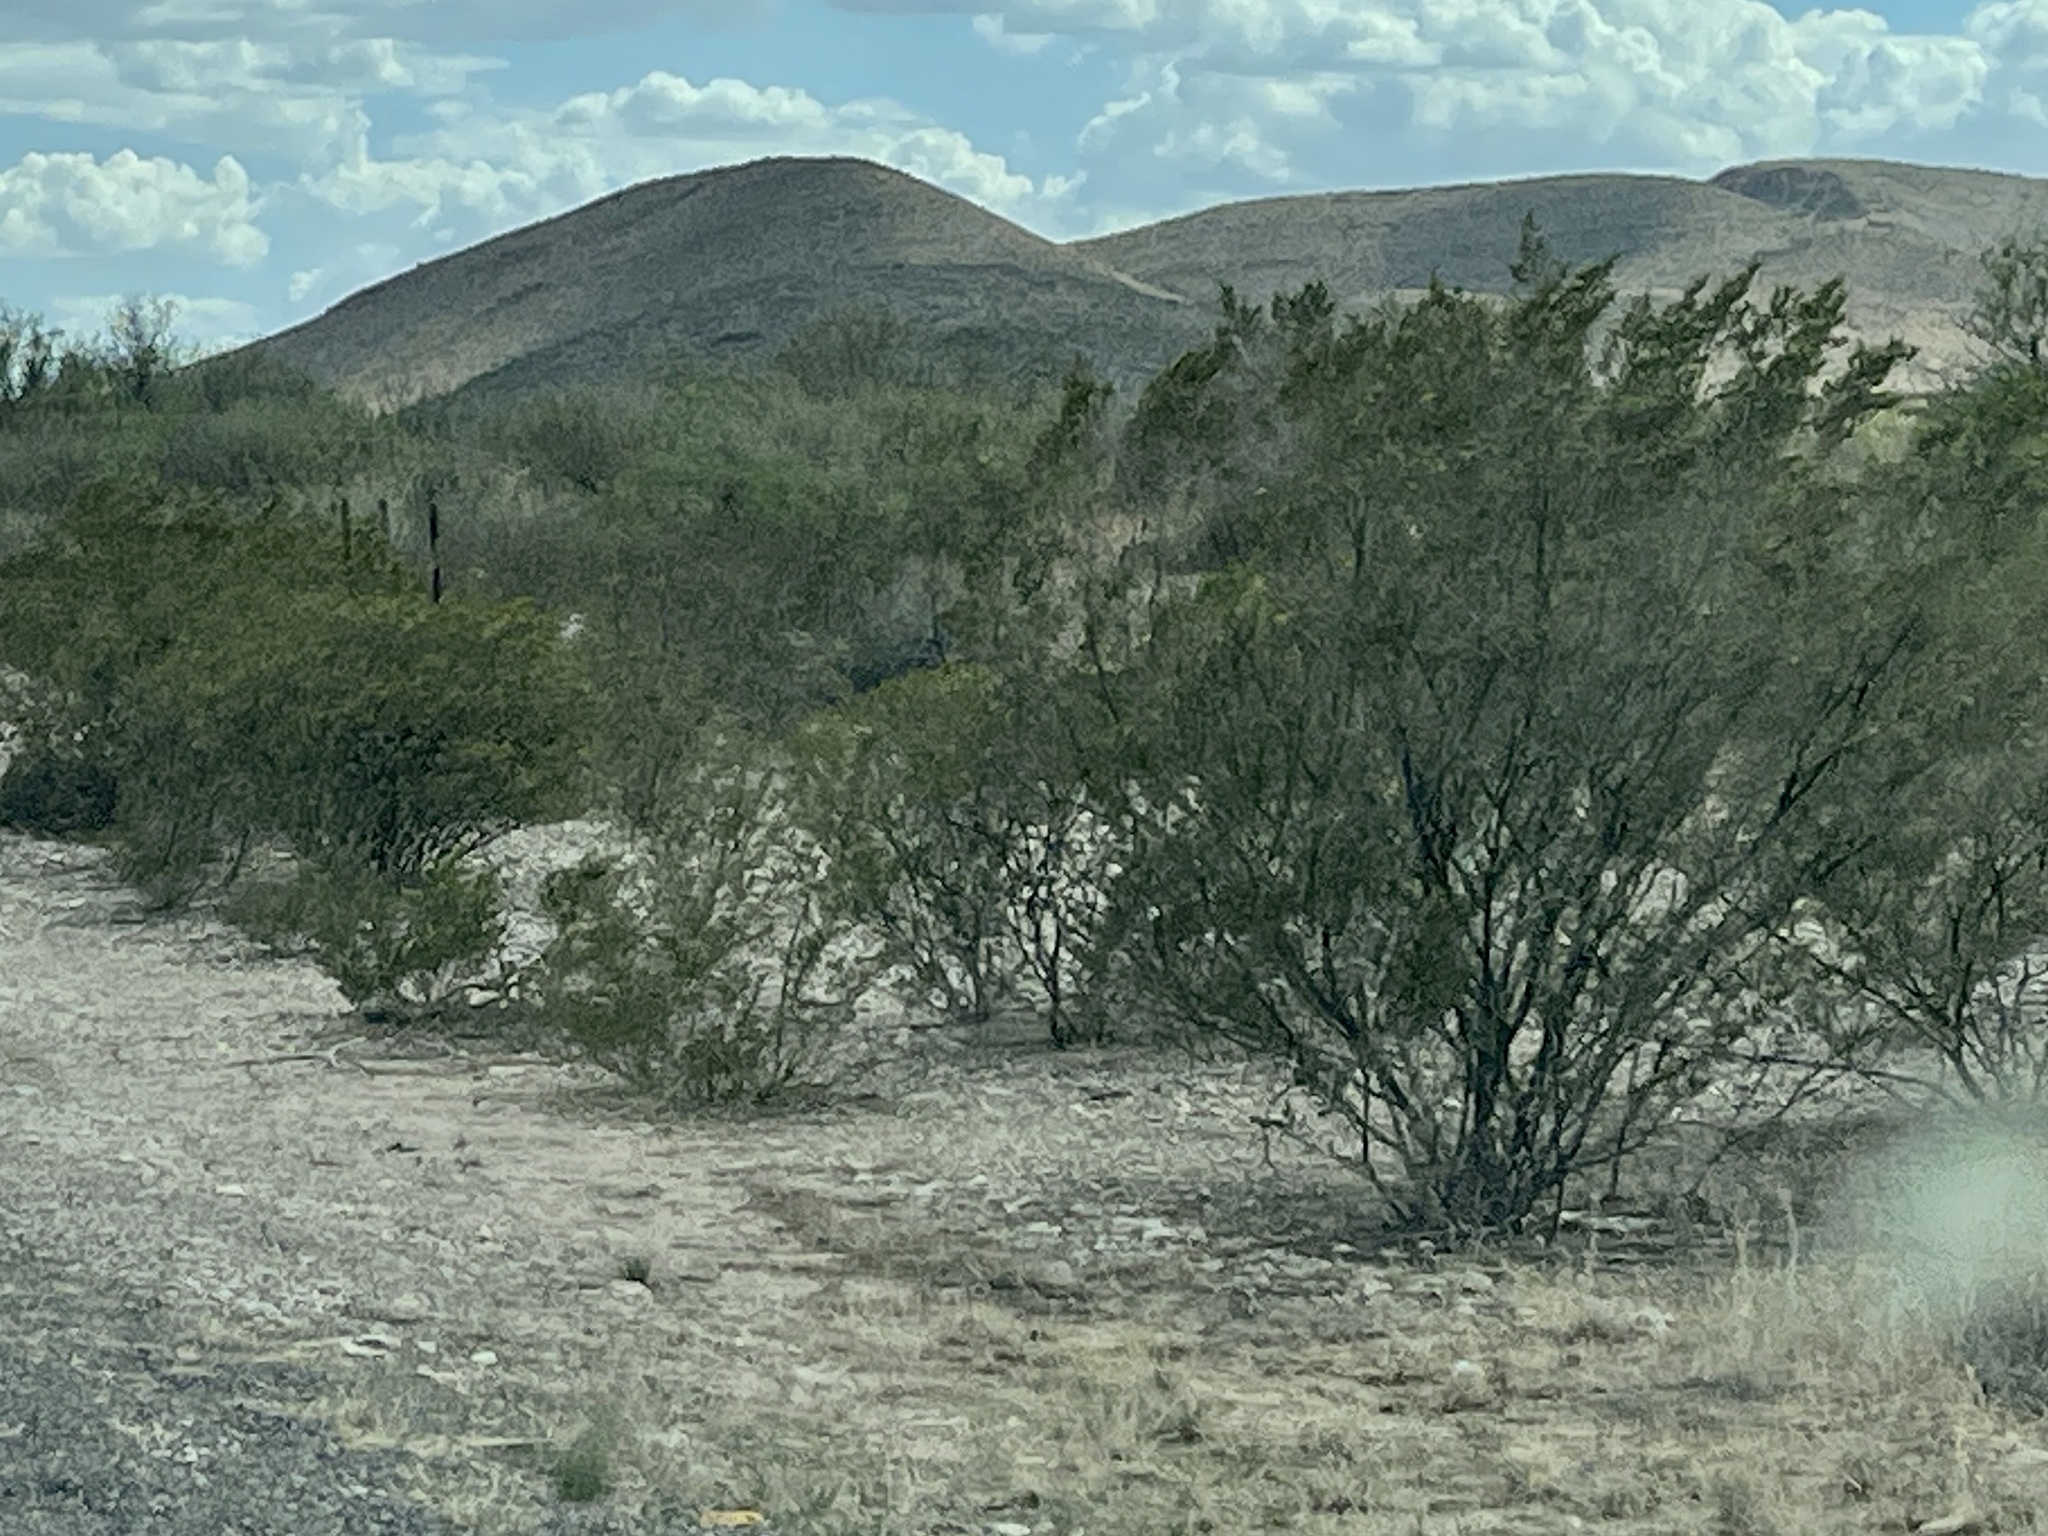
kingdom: Plantae
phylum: Tracheophyta
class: Magnoliopsida
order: Zygophyllales
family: Zygophyllaceae
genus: Larrea
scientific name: Larrea tridentata
